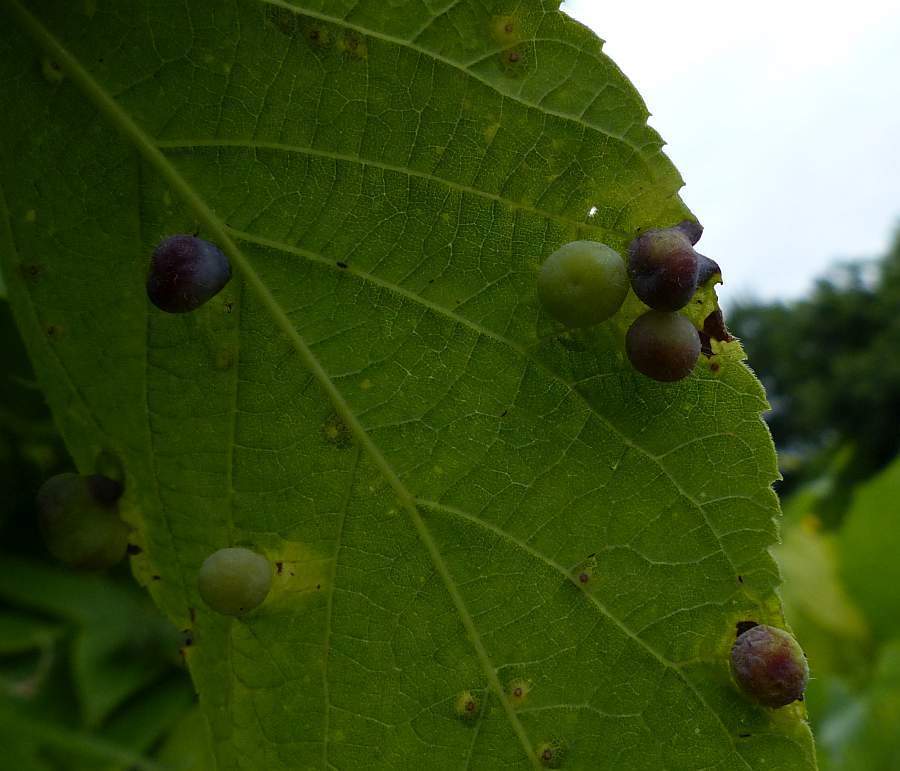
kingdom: Animalia
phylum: Arthropoda
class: Insecta
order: Hemiptera
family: Aphalaridae
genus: Pachypsylla
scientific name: Pachypsylla celtidismamma
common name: Hackberry nipplegall psyllid
